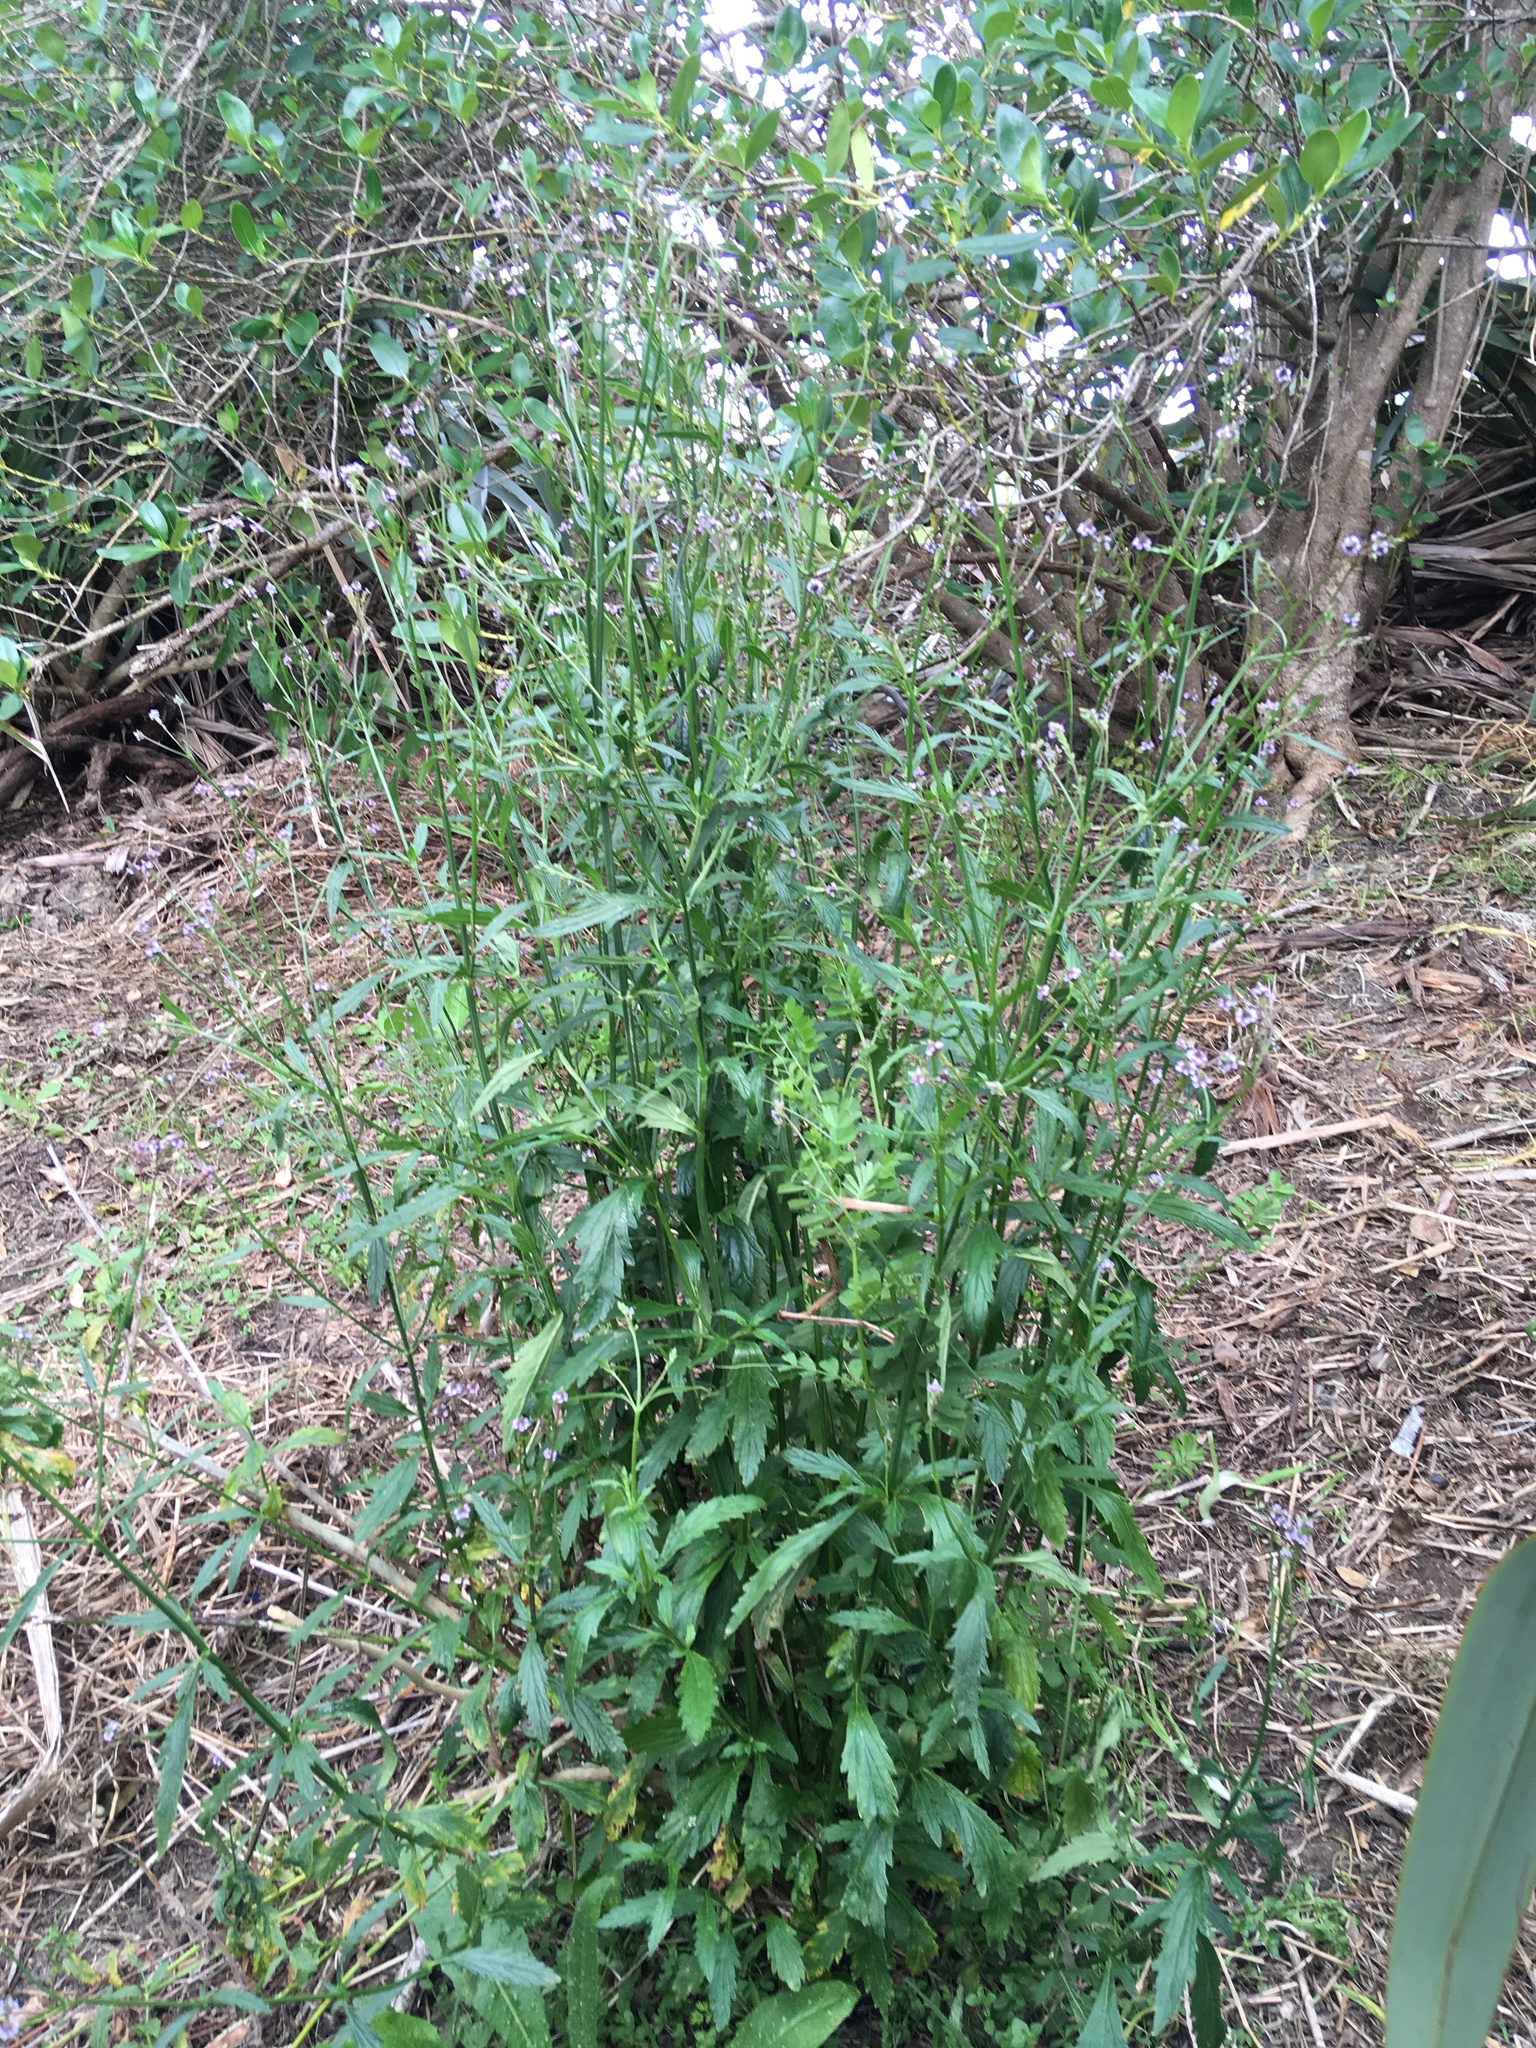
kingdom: Plantae
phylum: Tracheophyta
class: Magnoliopsida
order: Lamiales
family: Verbenaceae
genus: Verbena
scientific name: Verbena litoralis
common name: Seashore vervain
